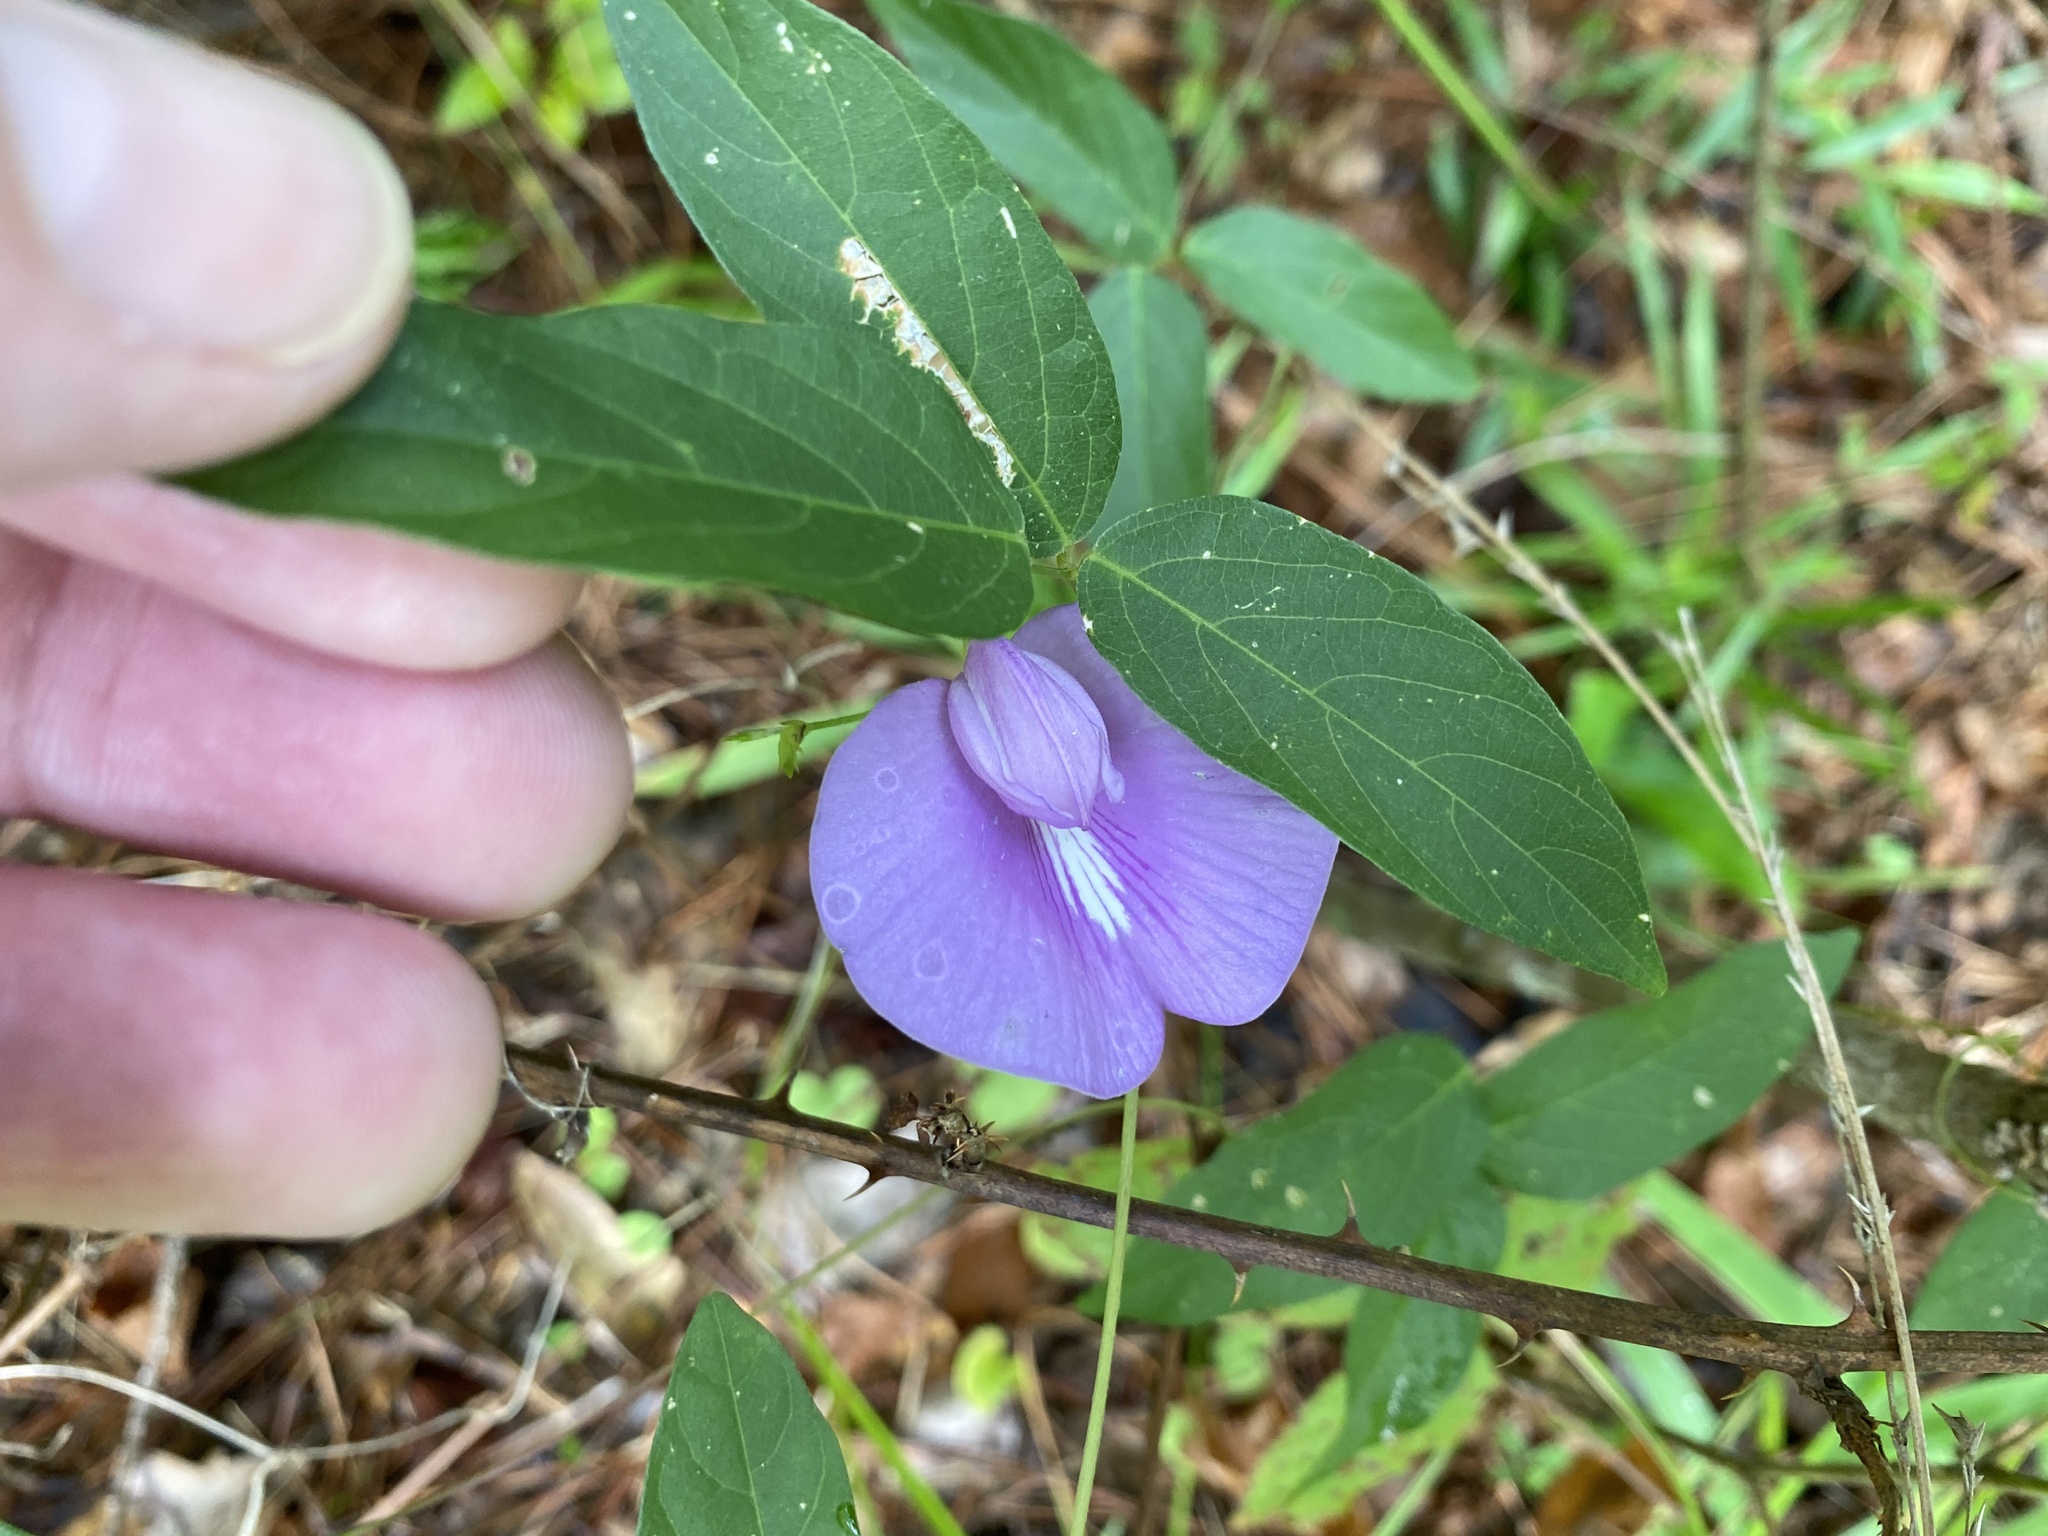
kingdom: Plantae
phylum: Tracheophyta
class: Magnoliopsida
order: Fabales
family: Fabaceae
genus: Centrosema
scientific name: Centrosema virginianum
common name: Butterfly-pea
